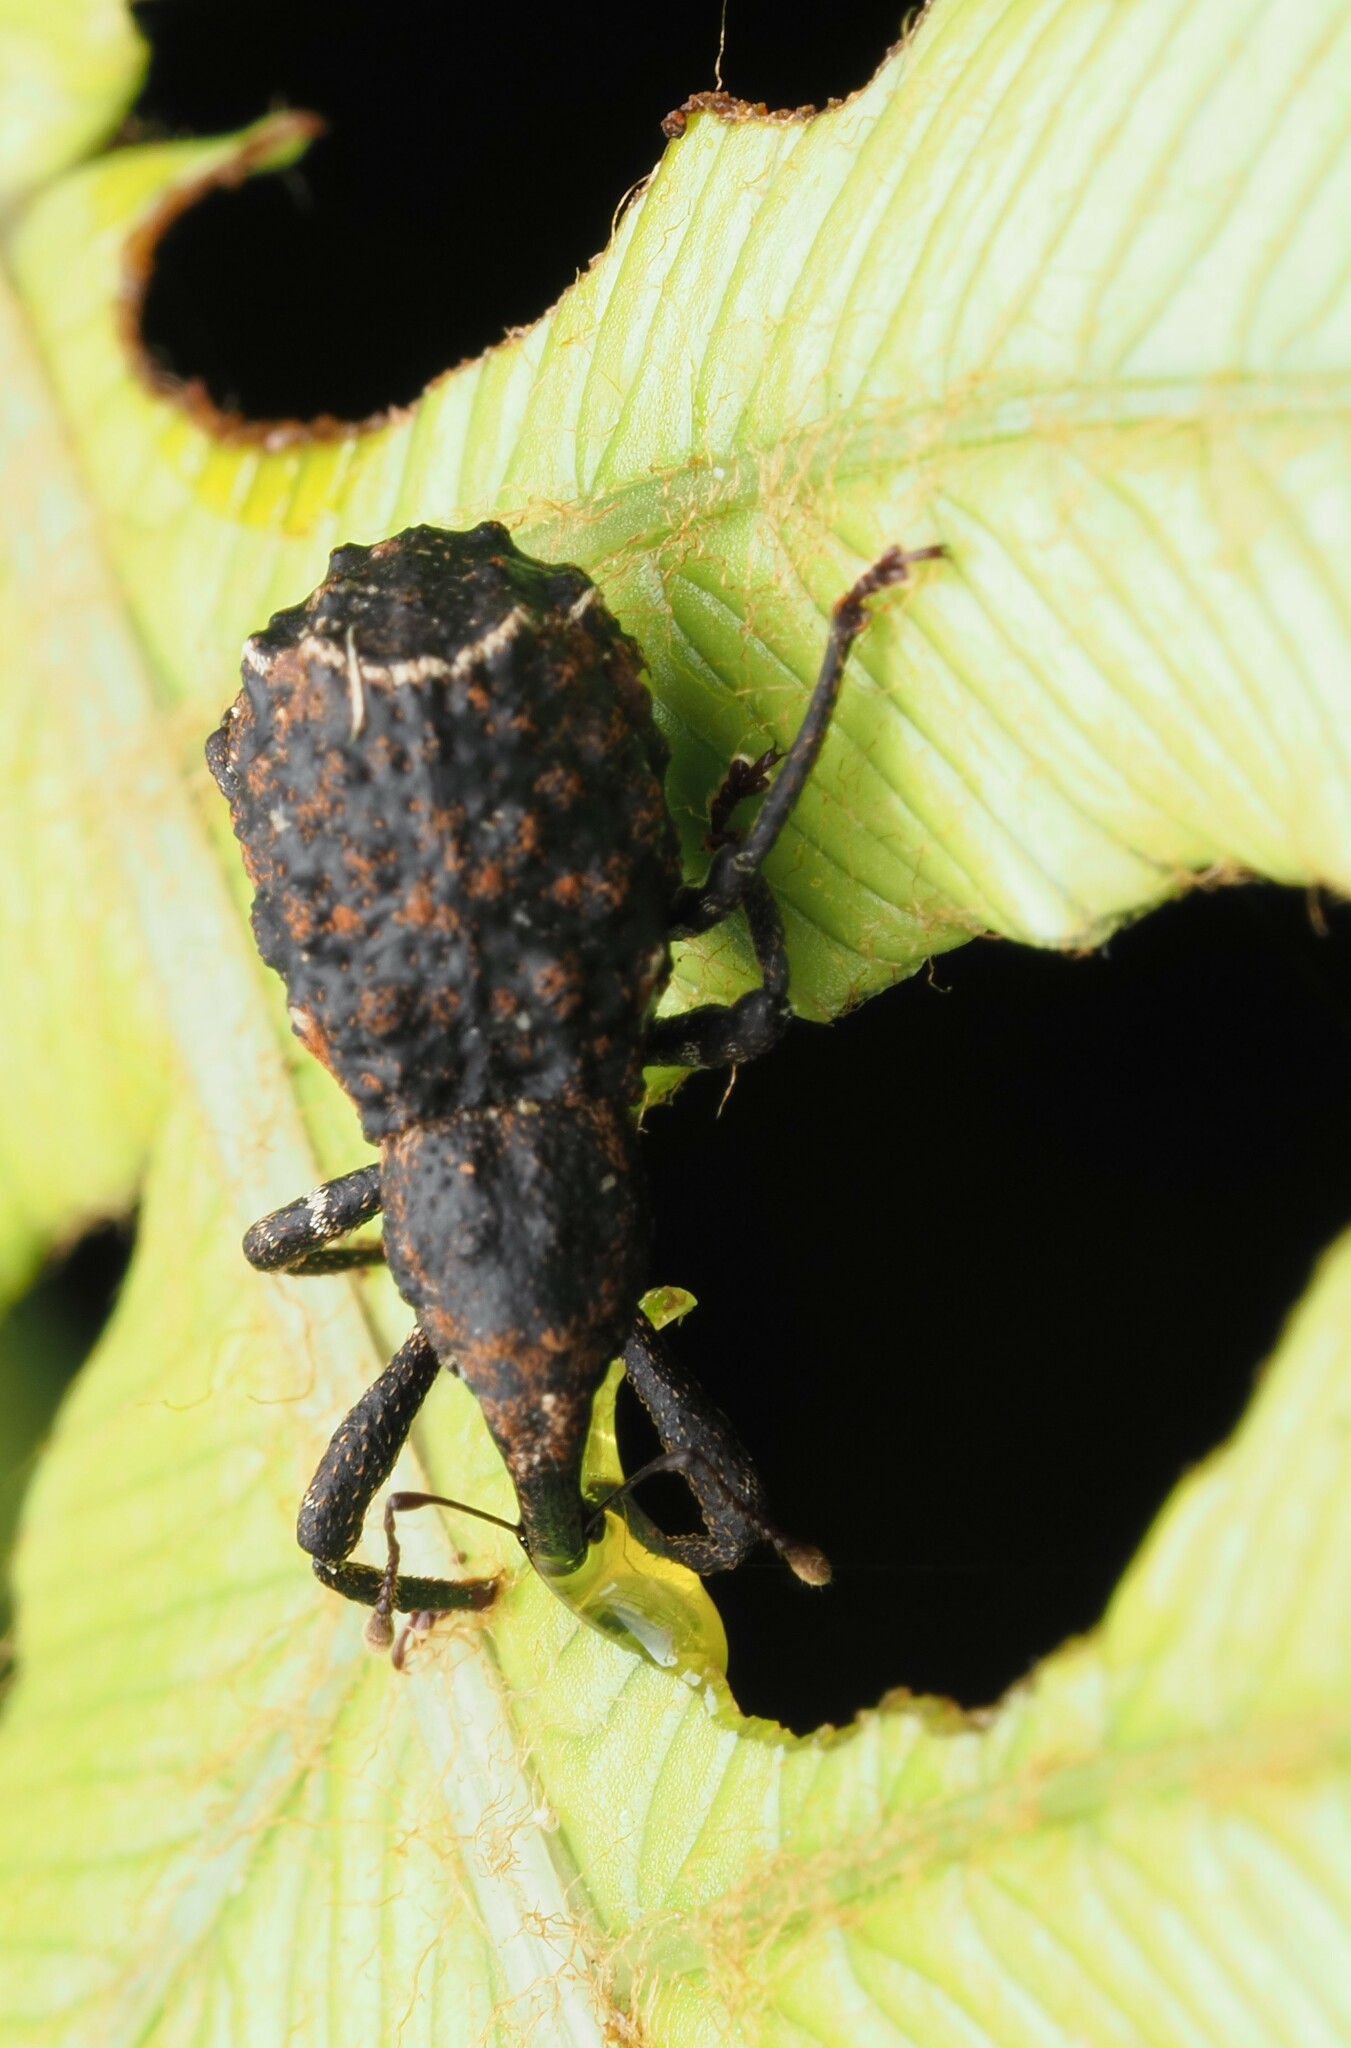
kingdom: Animalia
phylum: Arthropoda
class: Insecta
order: Coleoptera
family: Curculionidae
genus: Megacolabus
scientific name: Megacolabus decipiens
